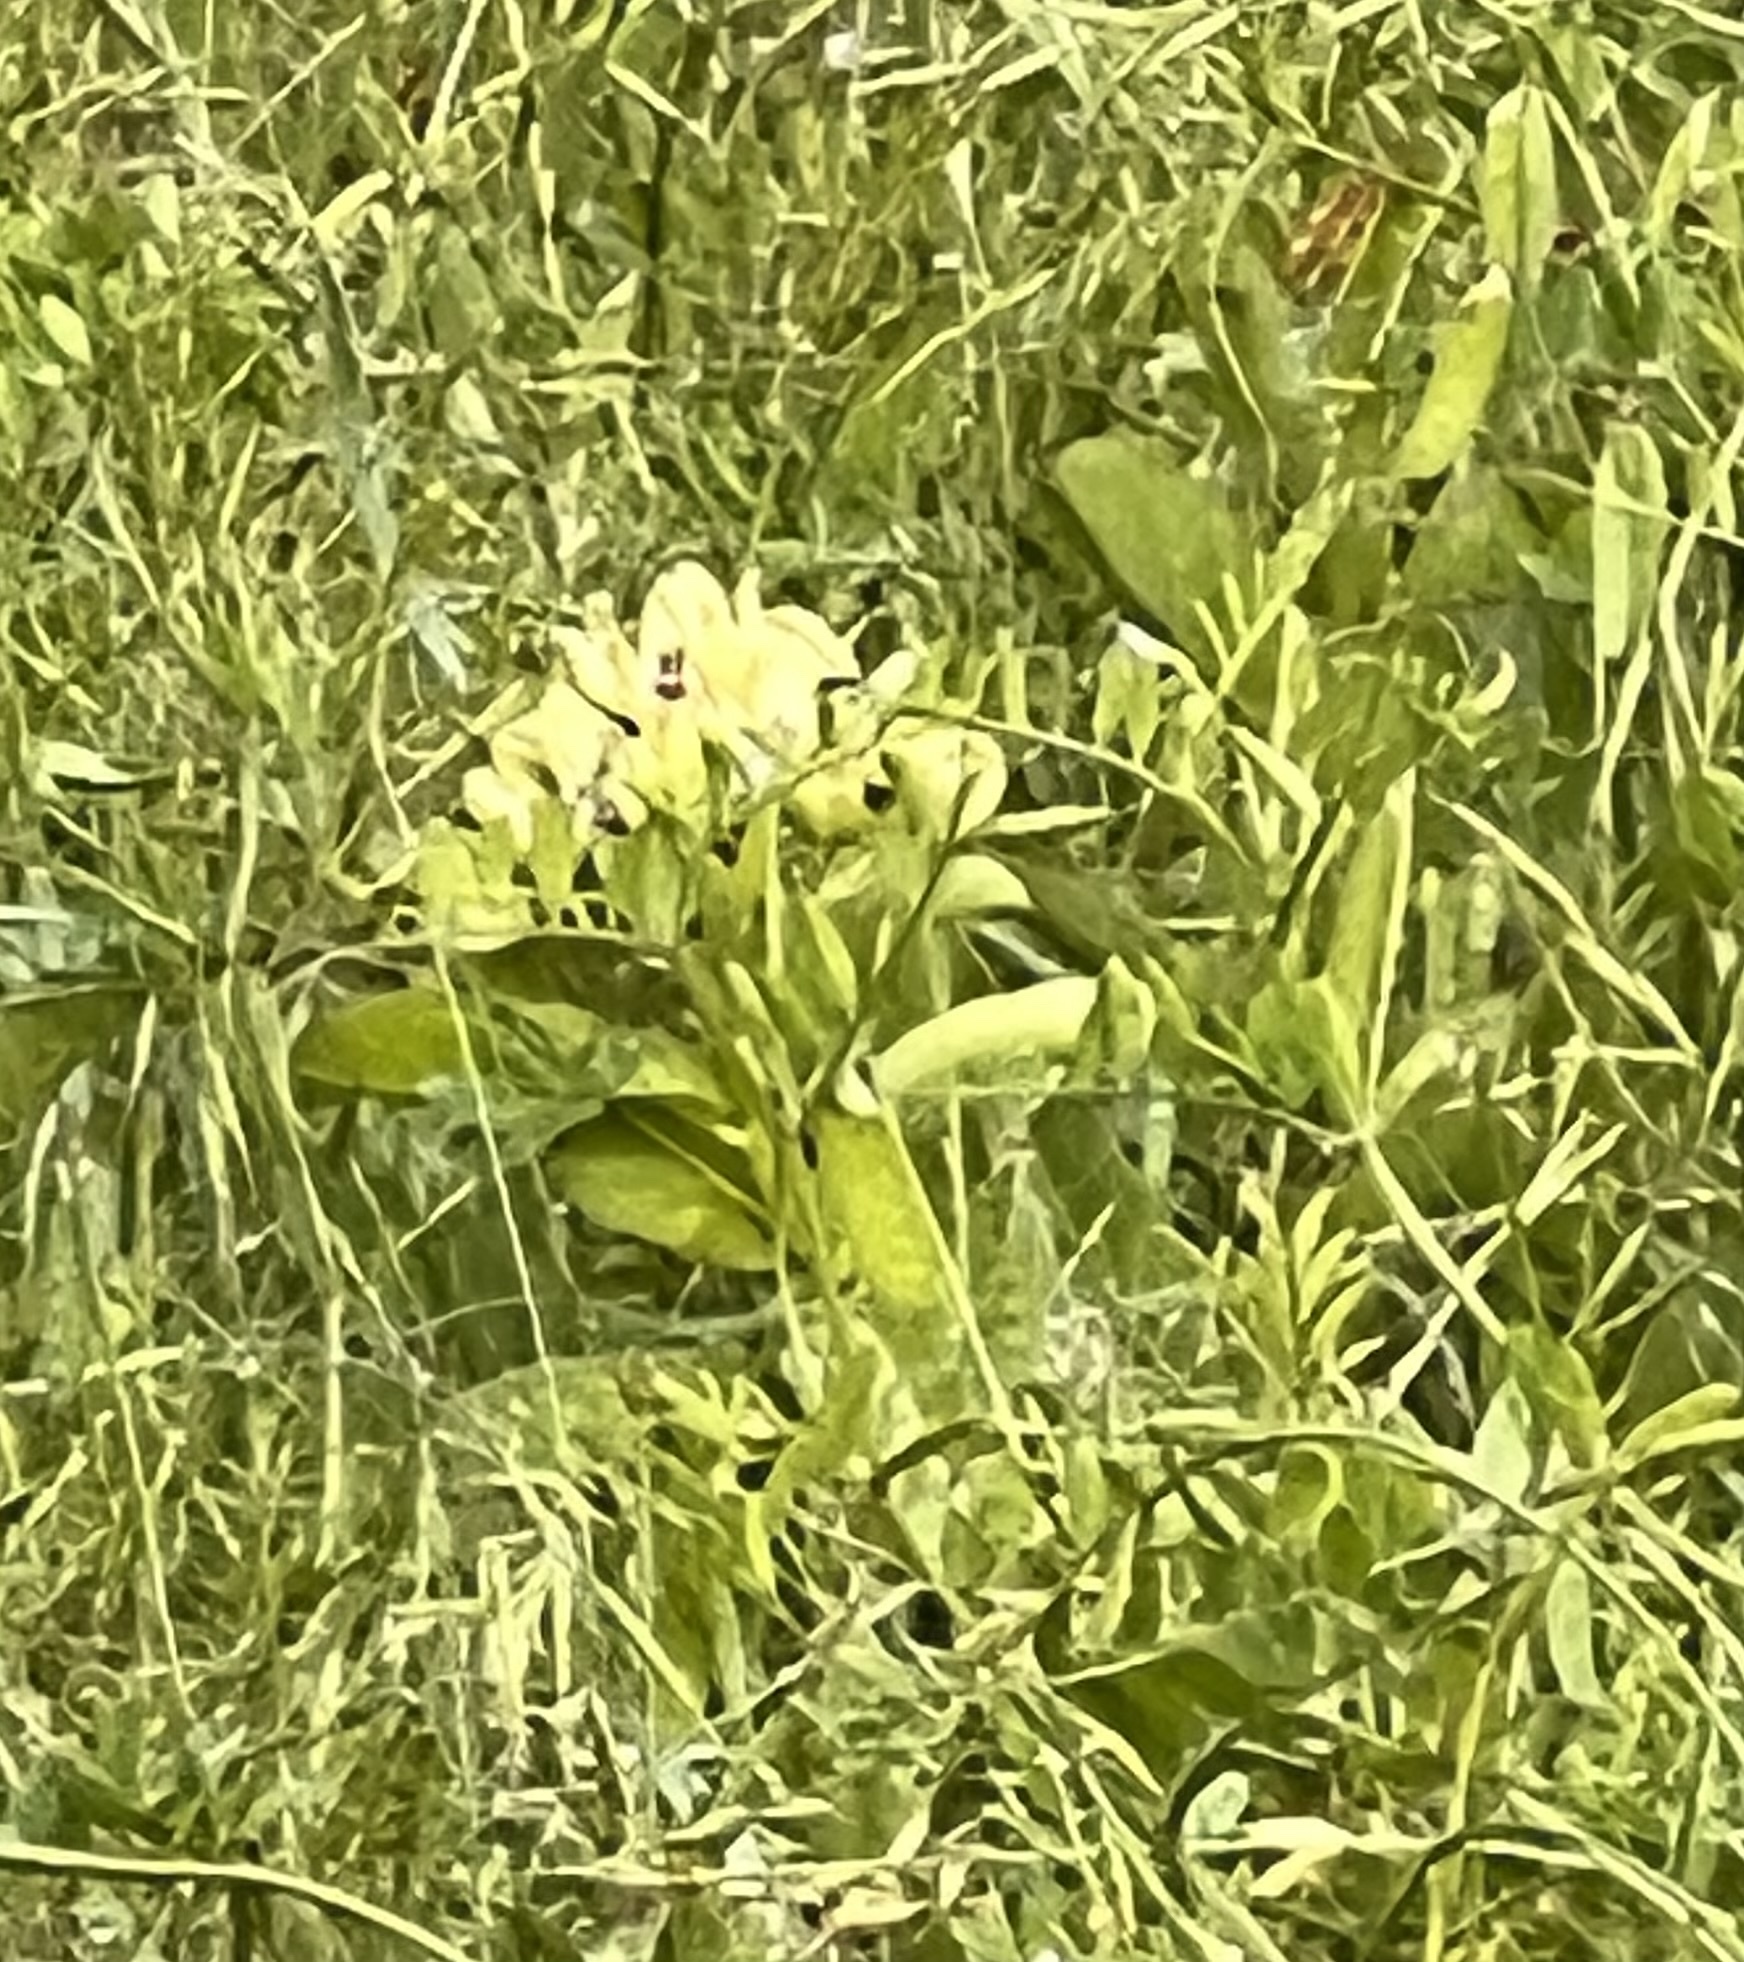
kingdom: Plantae
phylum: Tracheophyta
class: Magnoliopsida
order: Gentianales
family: Apocynaceae
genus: Asclepias
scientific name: Asclepias viridis
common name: Antelope-horns
